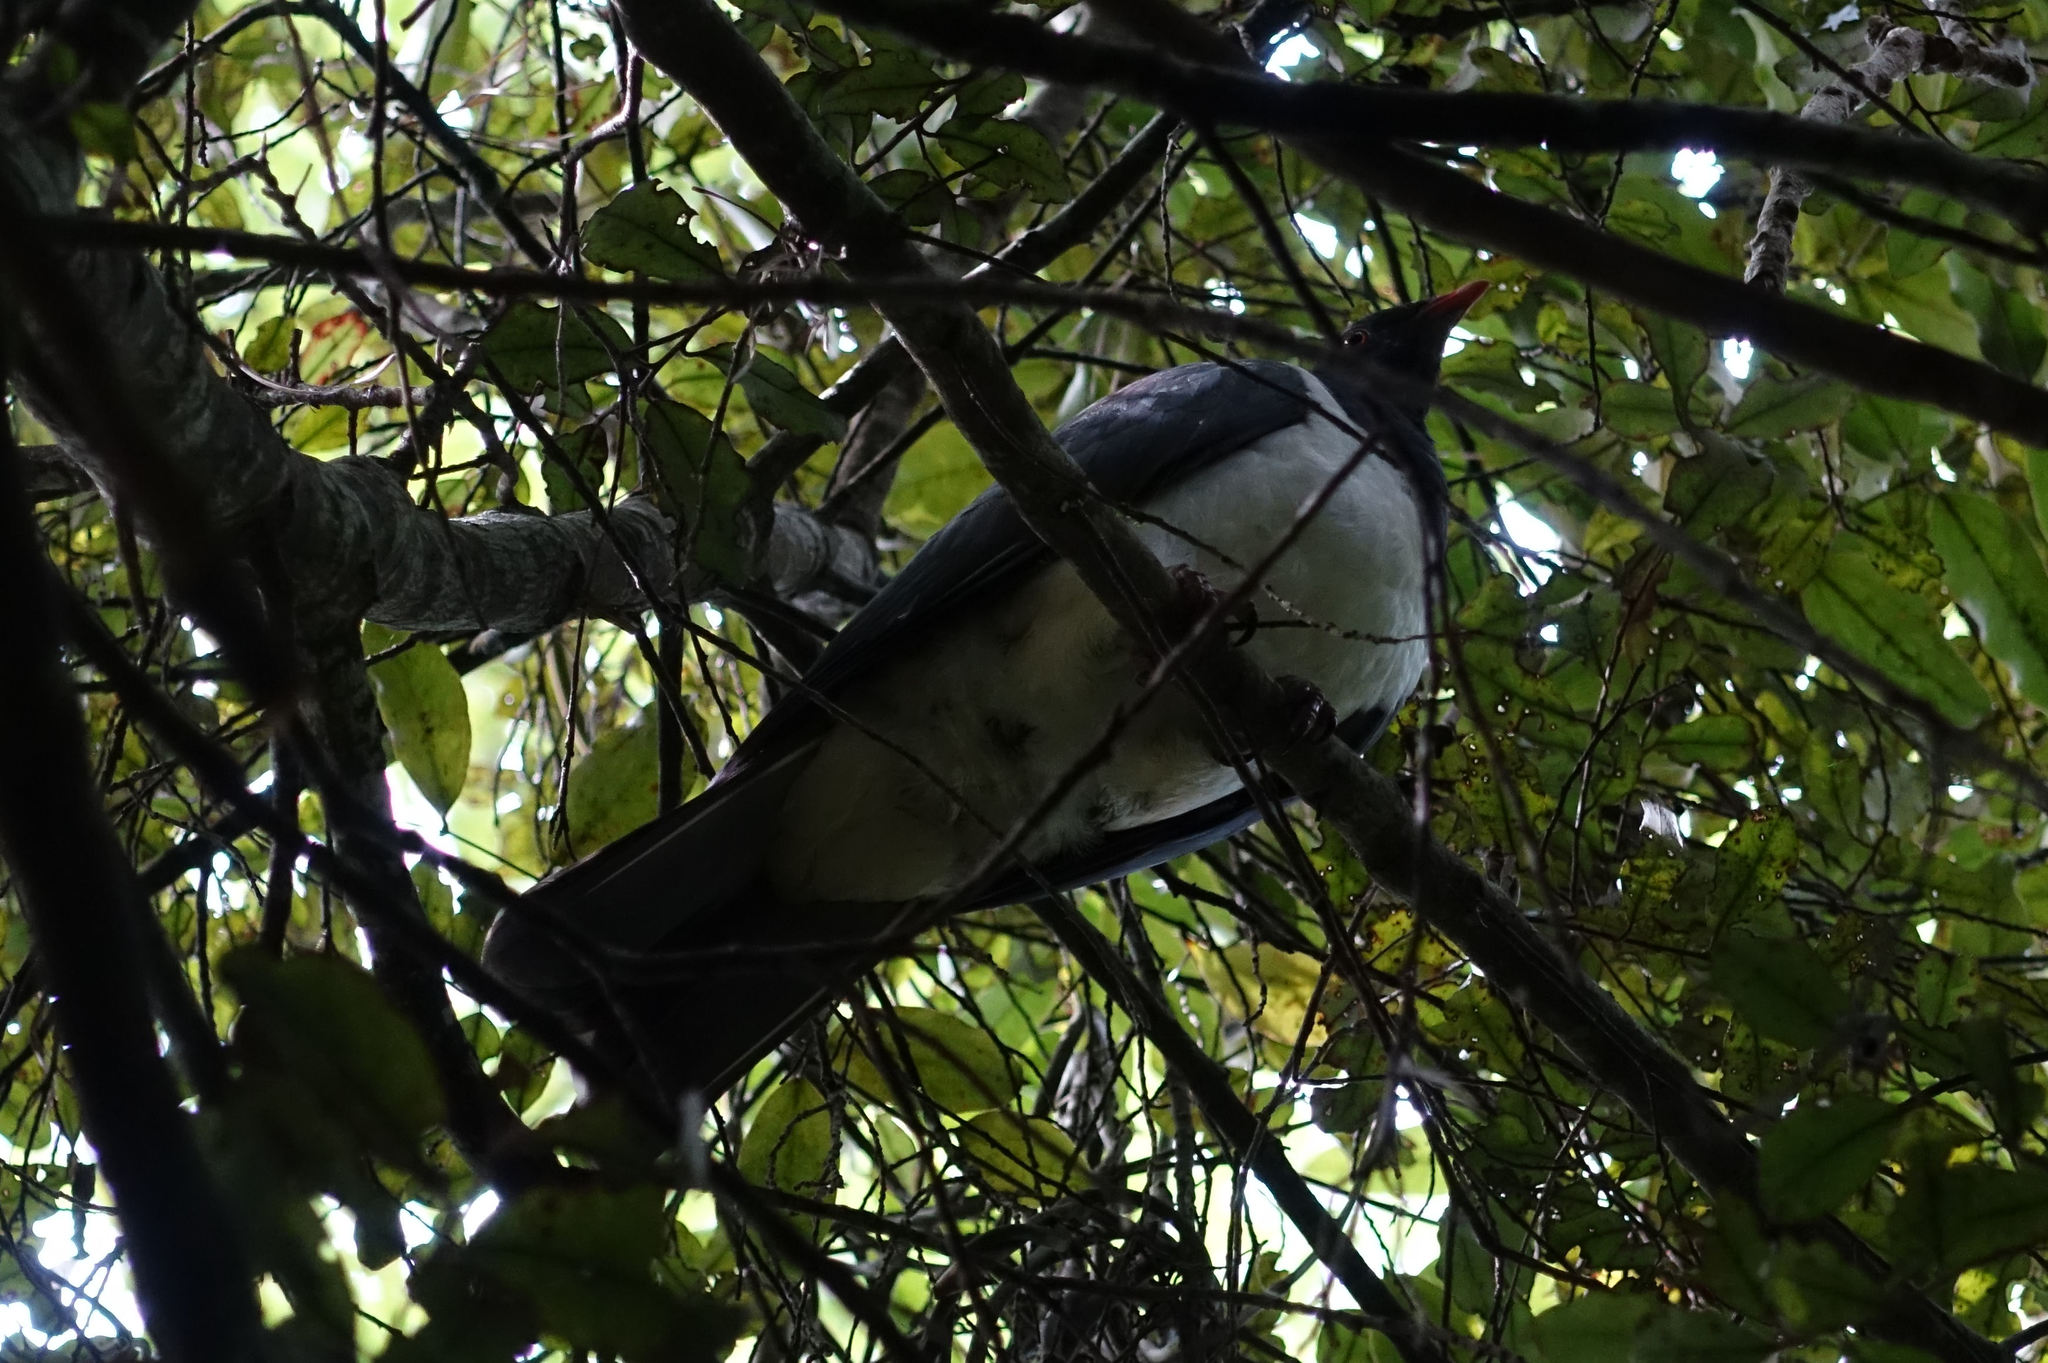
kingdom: Animalia
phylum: Chordata
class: Aves
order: Columbiformes
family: Columbidae
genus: Hemiphaga
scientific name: Hemiphaga novaeseelandiae
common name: New zealand pigeon
